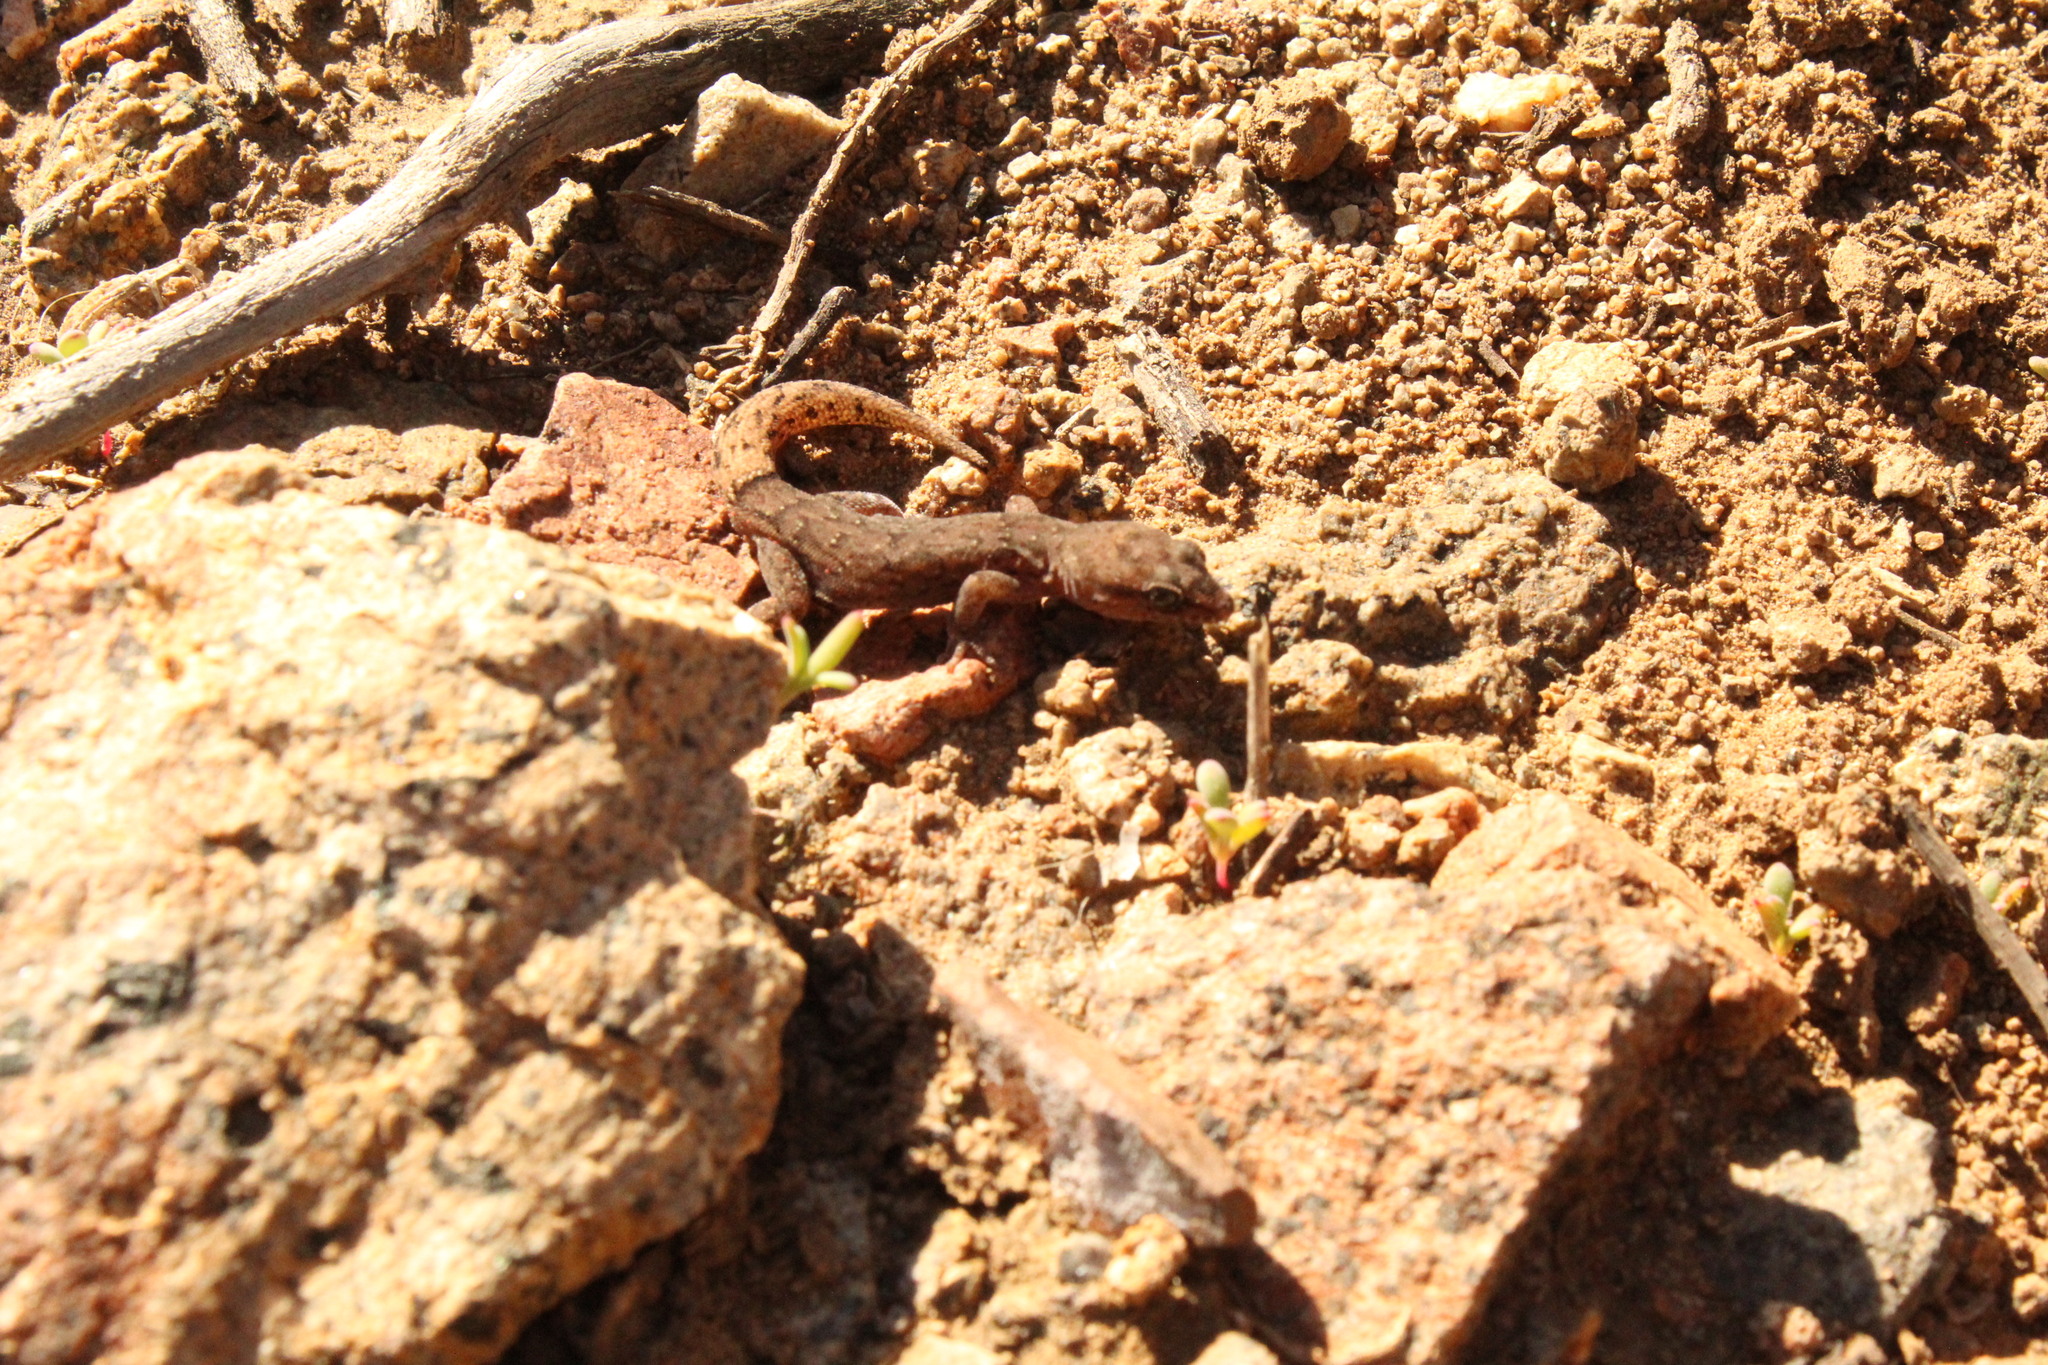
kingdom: Animalia
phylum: Chordata
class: Squamata
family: Phyllodactylidae
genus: Garthia
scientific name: Garthia gaudichaudii
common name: Chilean marked gecko
